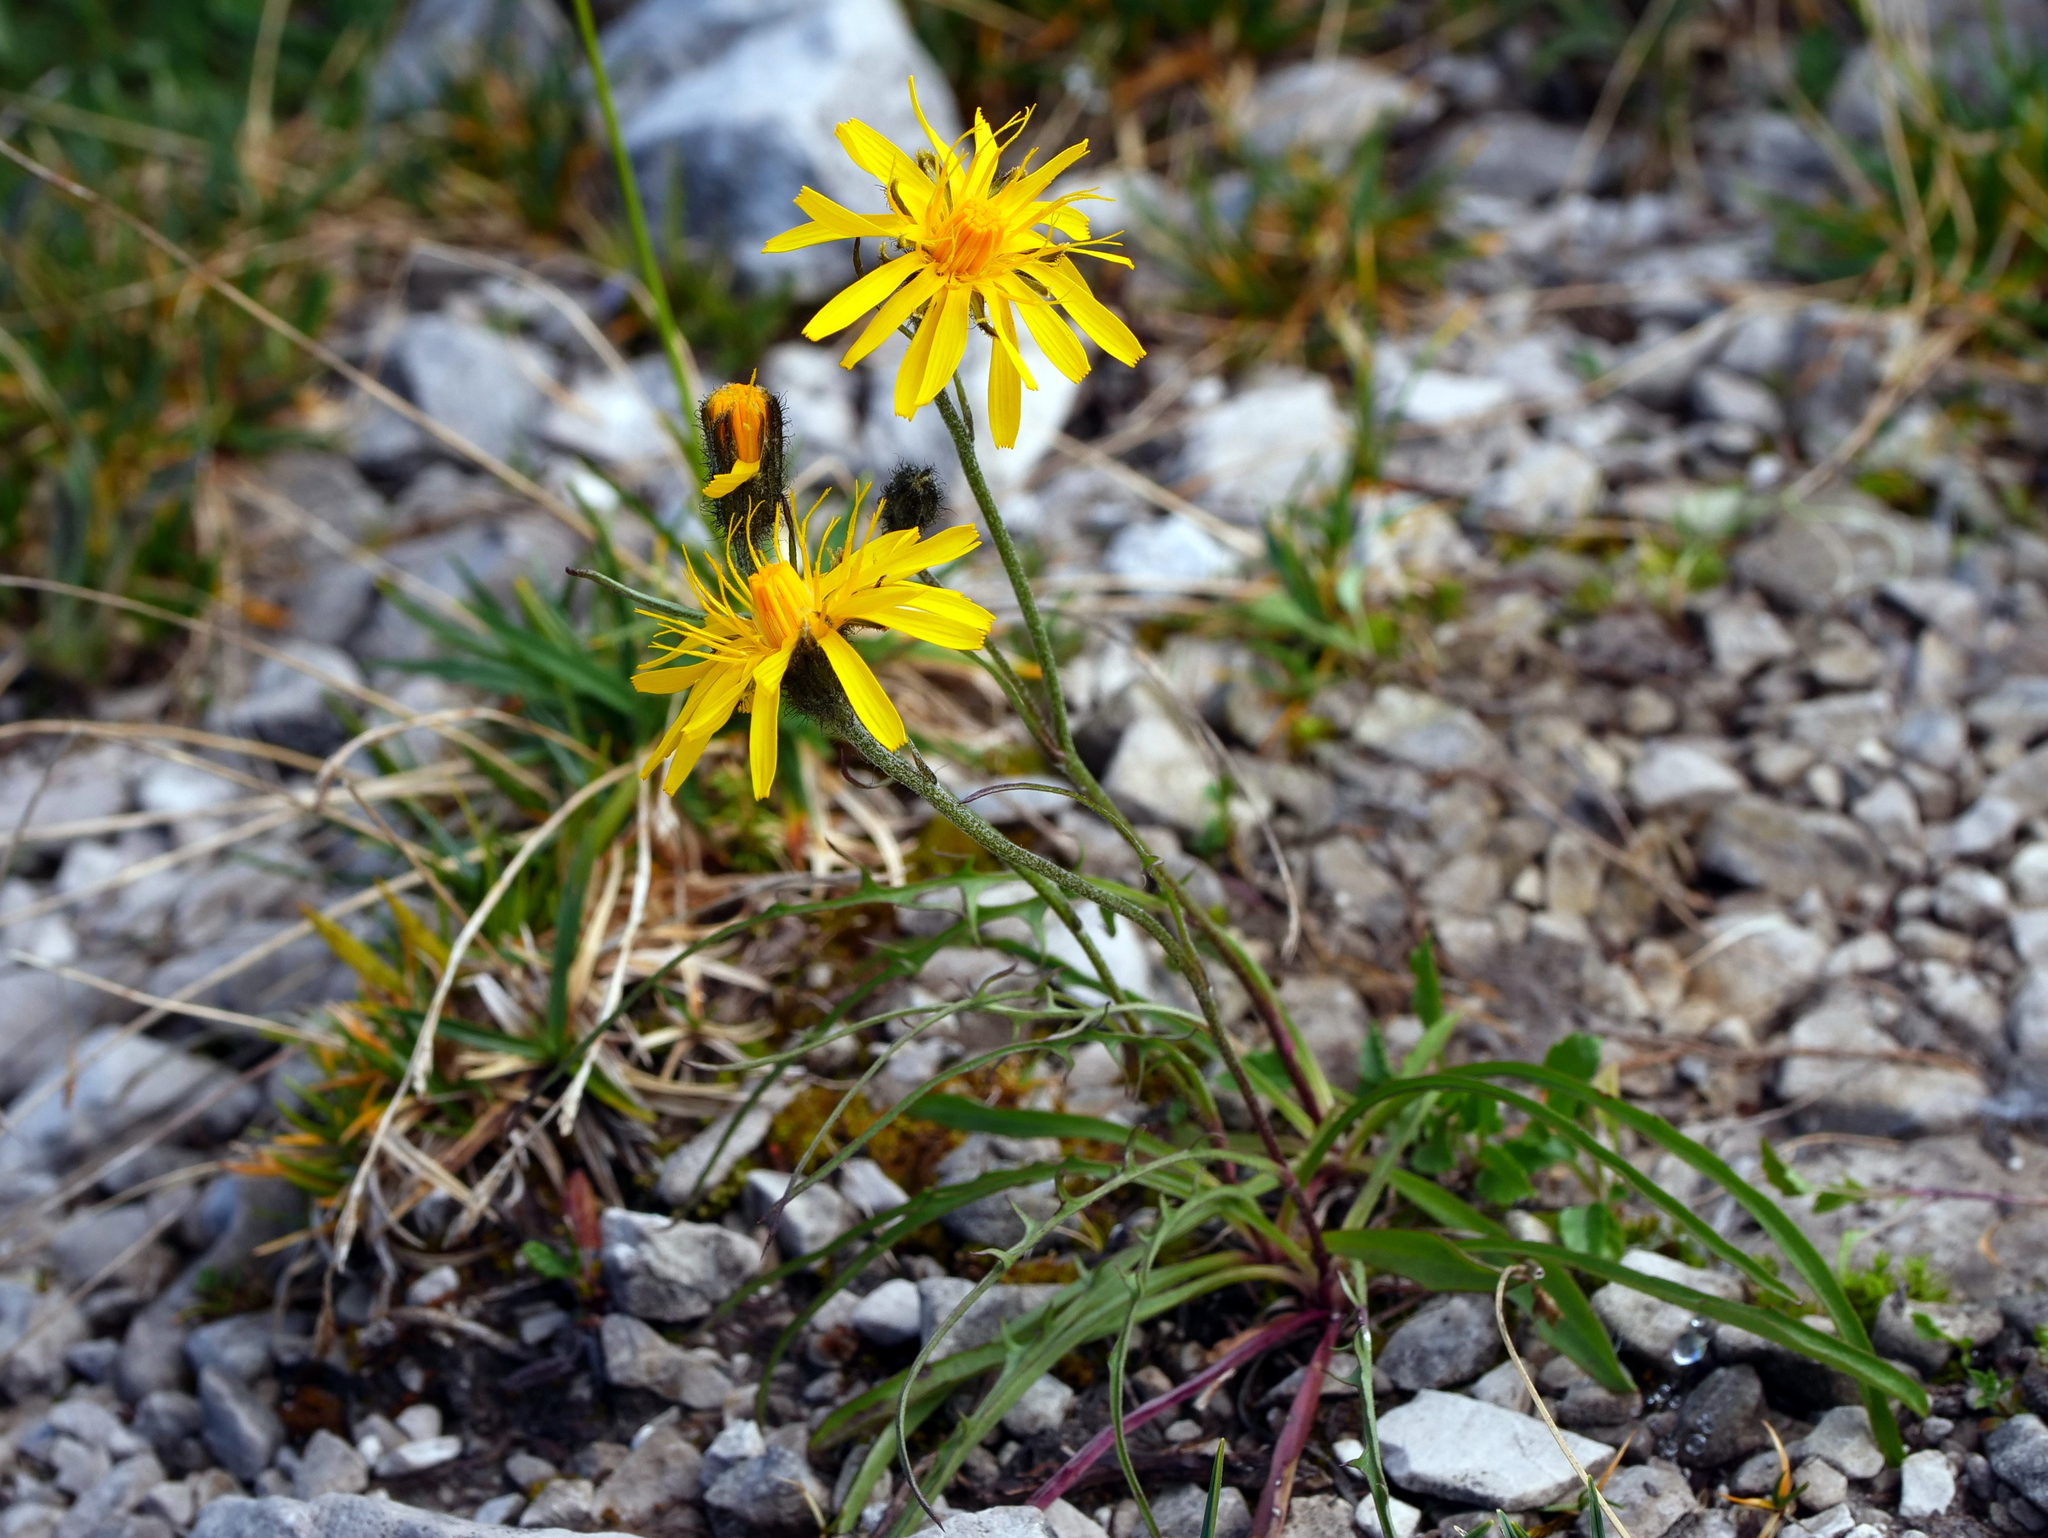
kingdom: Plantae
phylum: Tracheophyta
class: Magnoliopsida
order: Asterales
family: Asteraceae
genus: Crepis
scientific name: Crepis jacquinii
